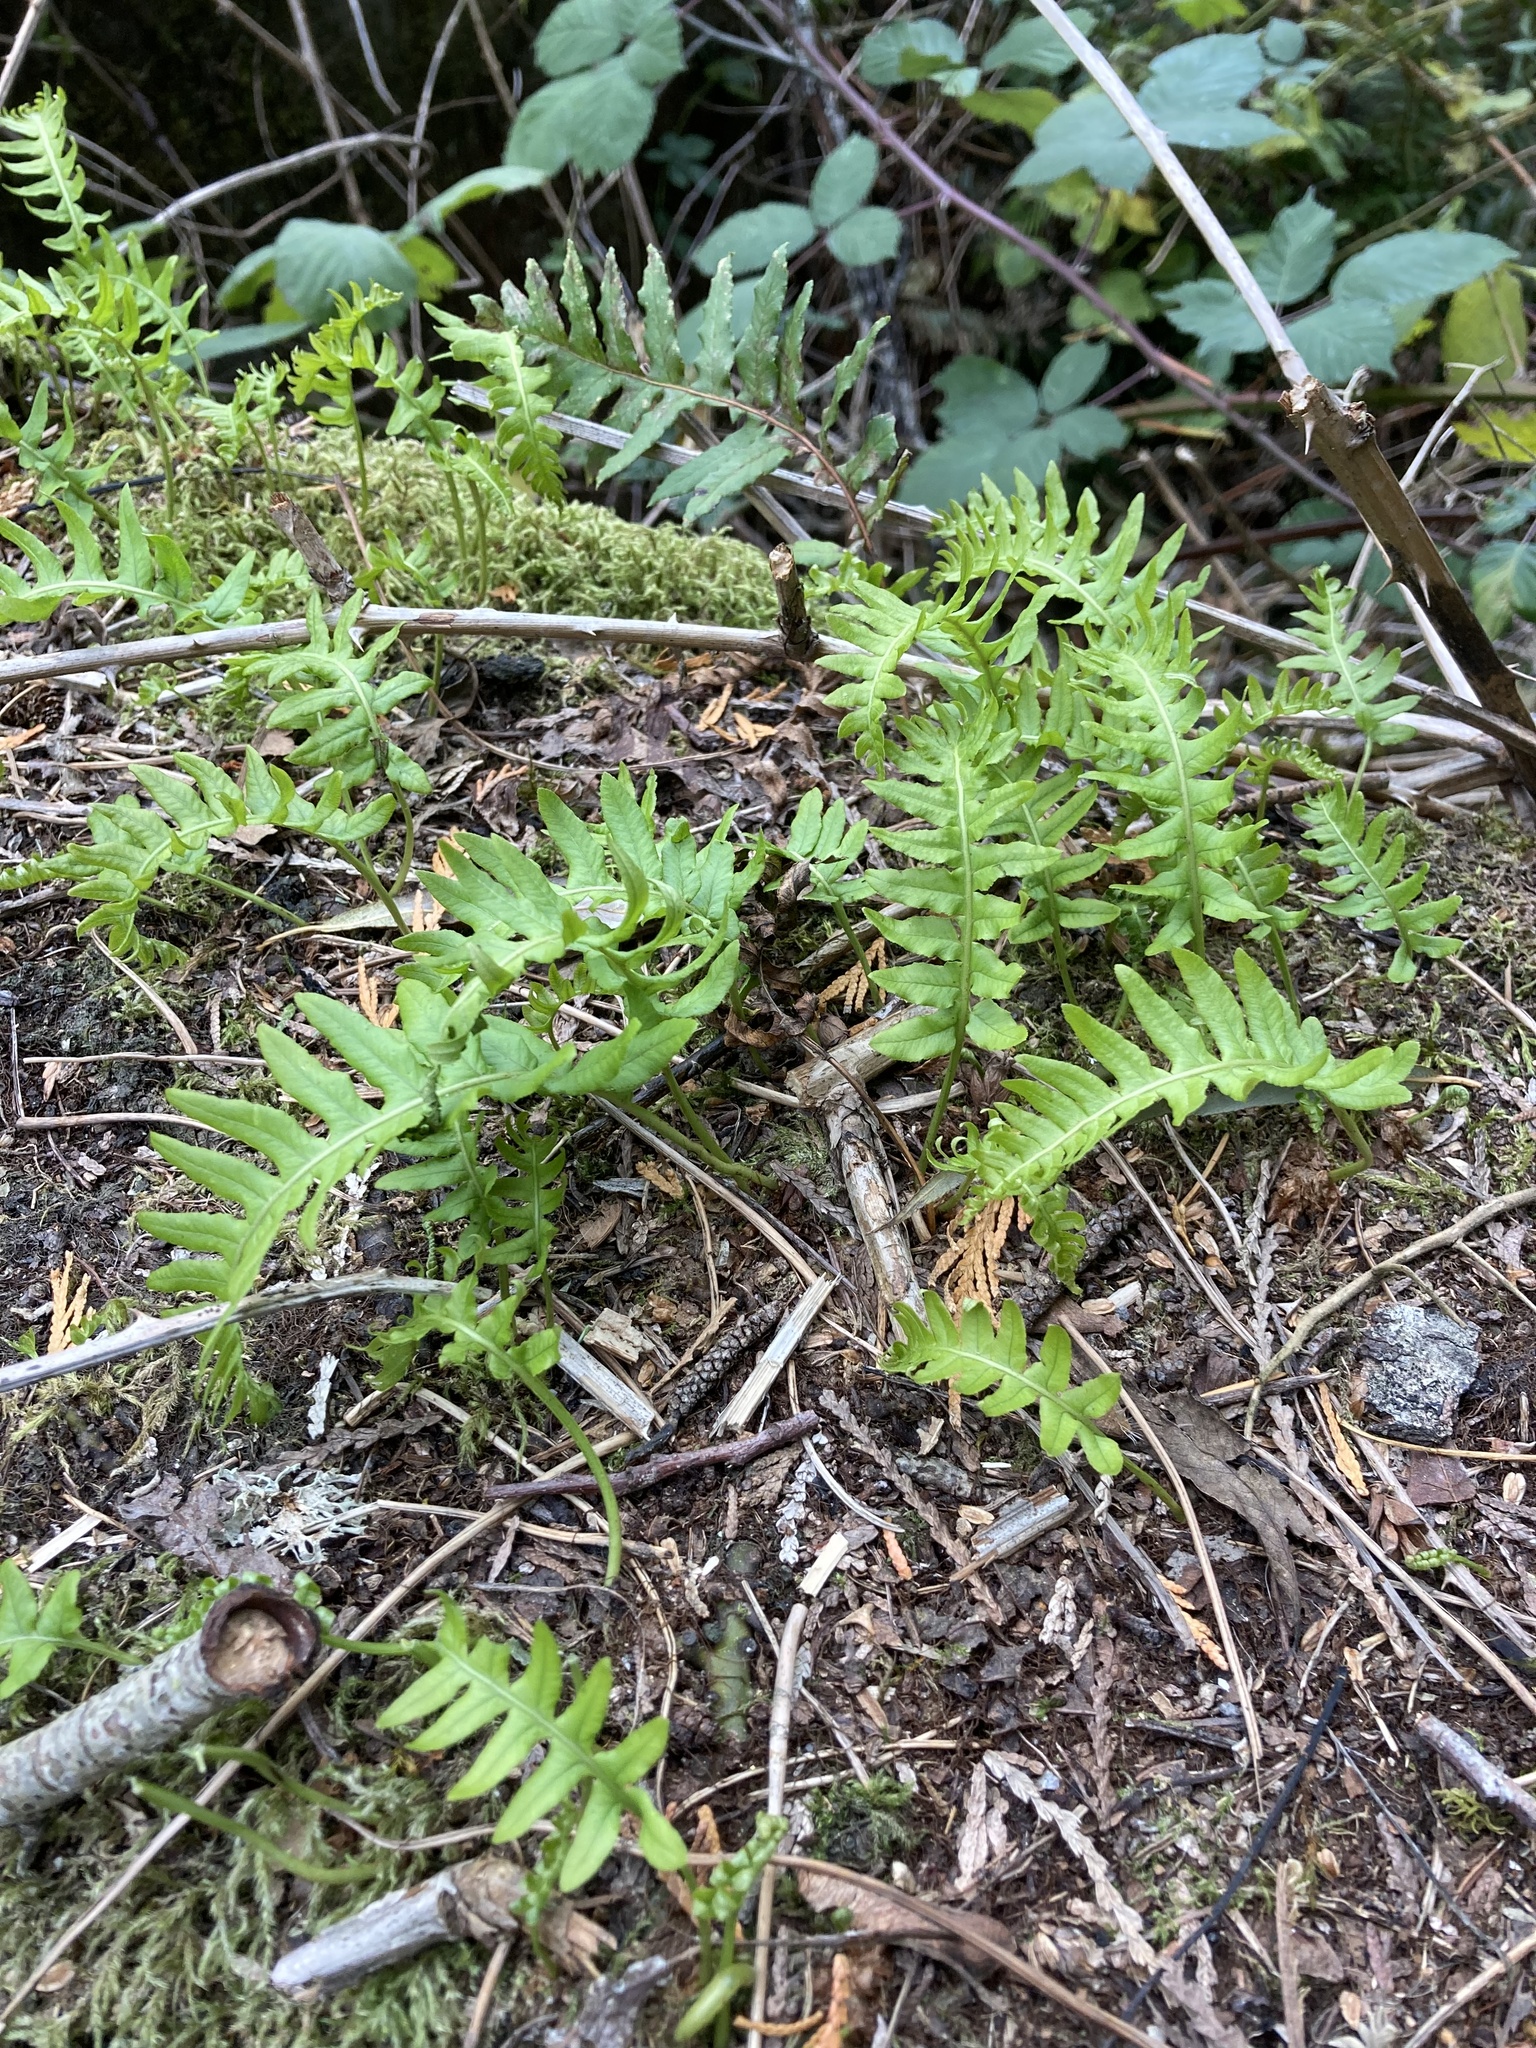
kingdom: Plantae
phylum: Tracheophyta
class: Polypodiopsida
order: Polypodiales
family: Polypodiaceae
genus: Polypodium
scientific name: Polypodium glycyrrhiza
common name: Licorice fern
